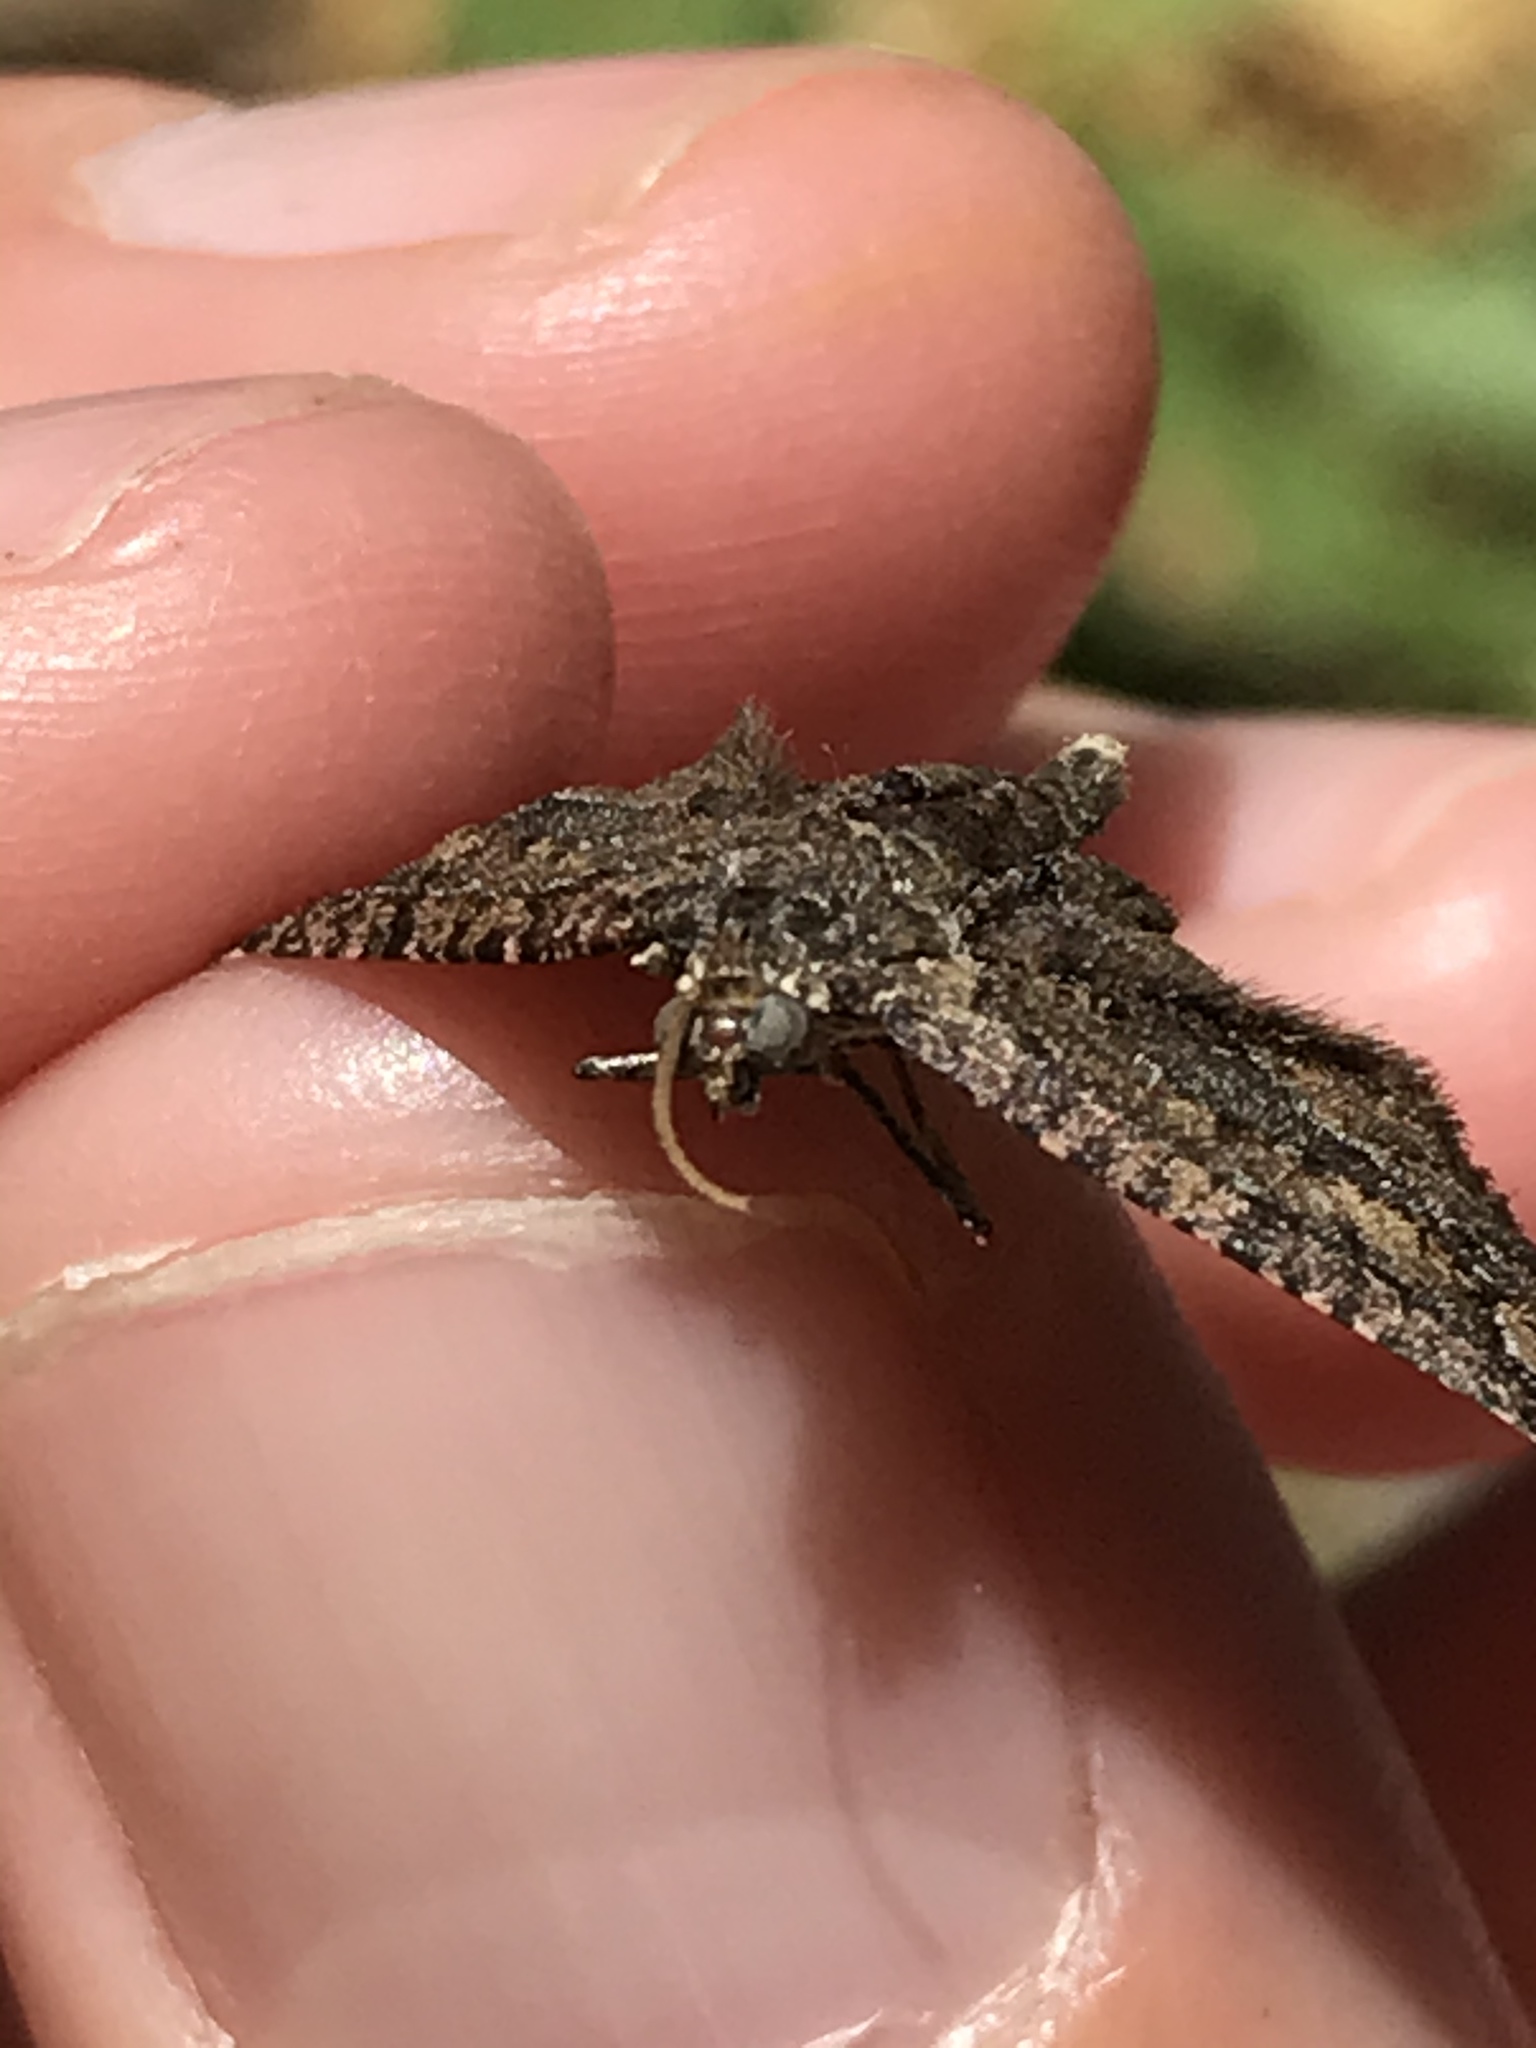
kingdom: Animalia
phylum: Arthropoda
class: Insecta
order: Lepidoptera
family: Geometridae
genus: Disclisioprocta
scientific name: Disclisioprocta stellata
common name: Somber carpet
